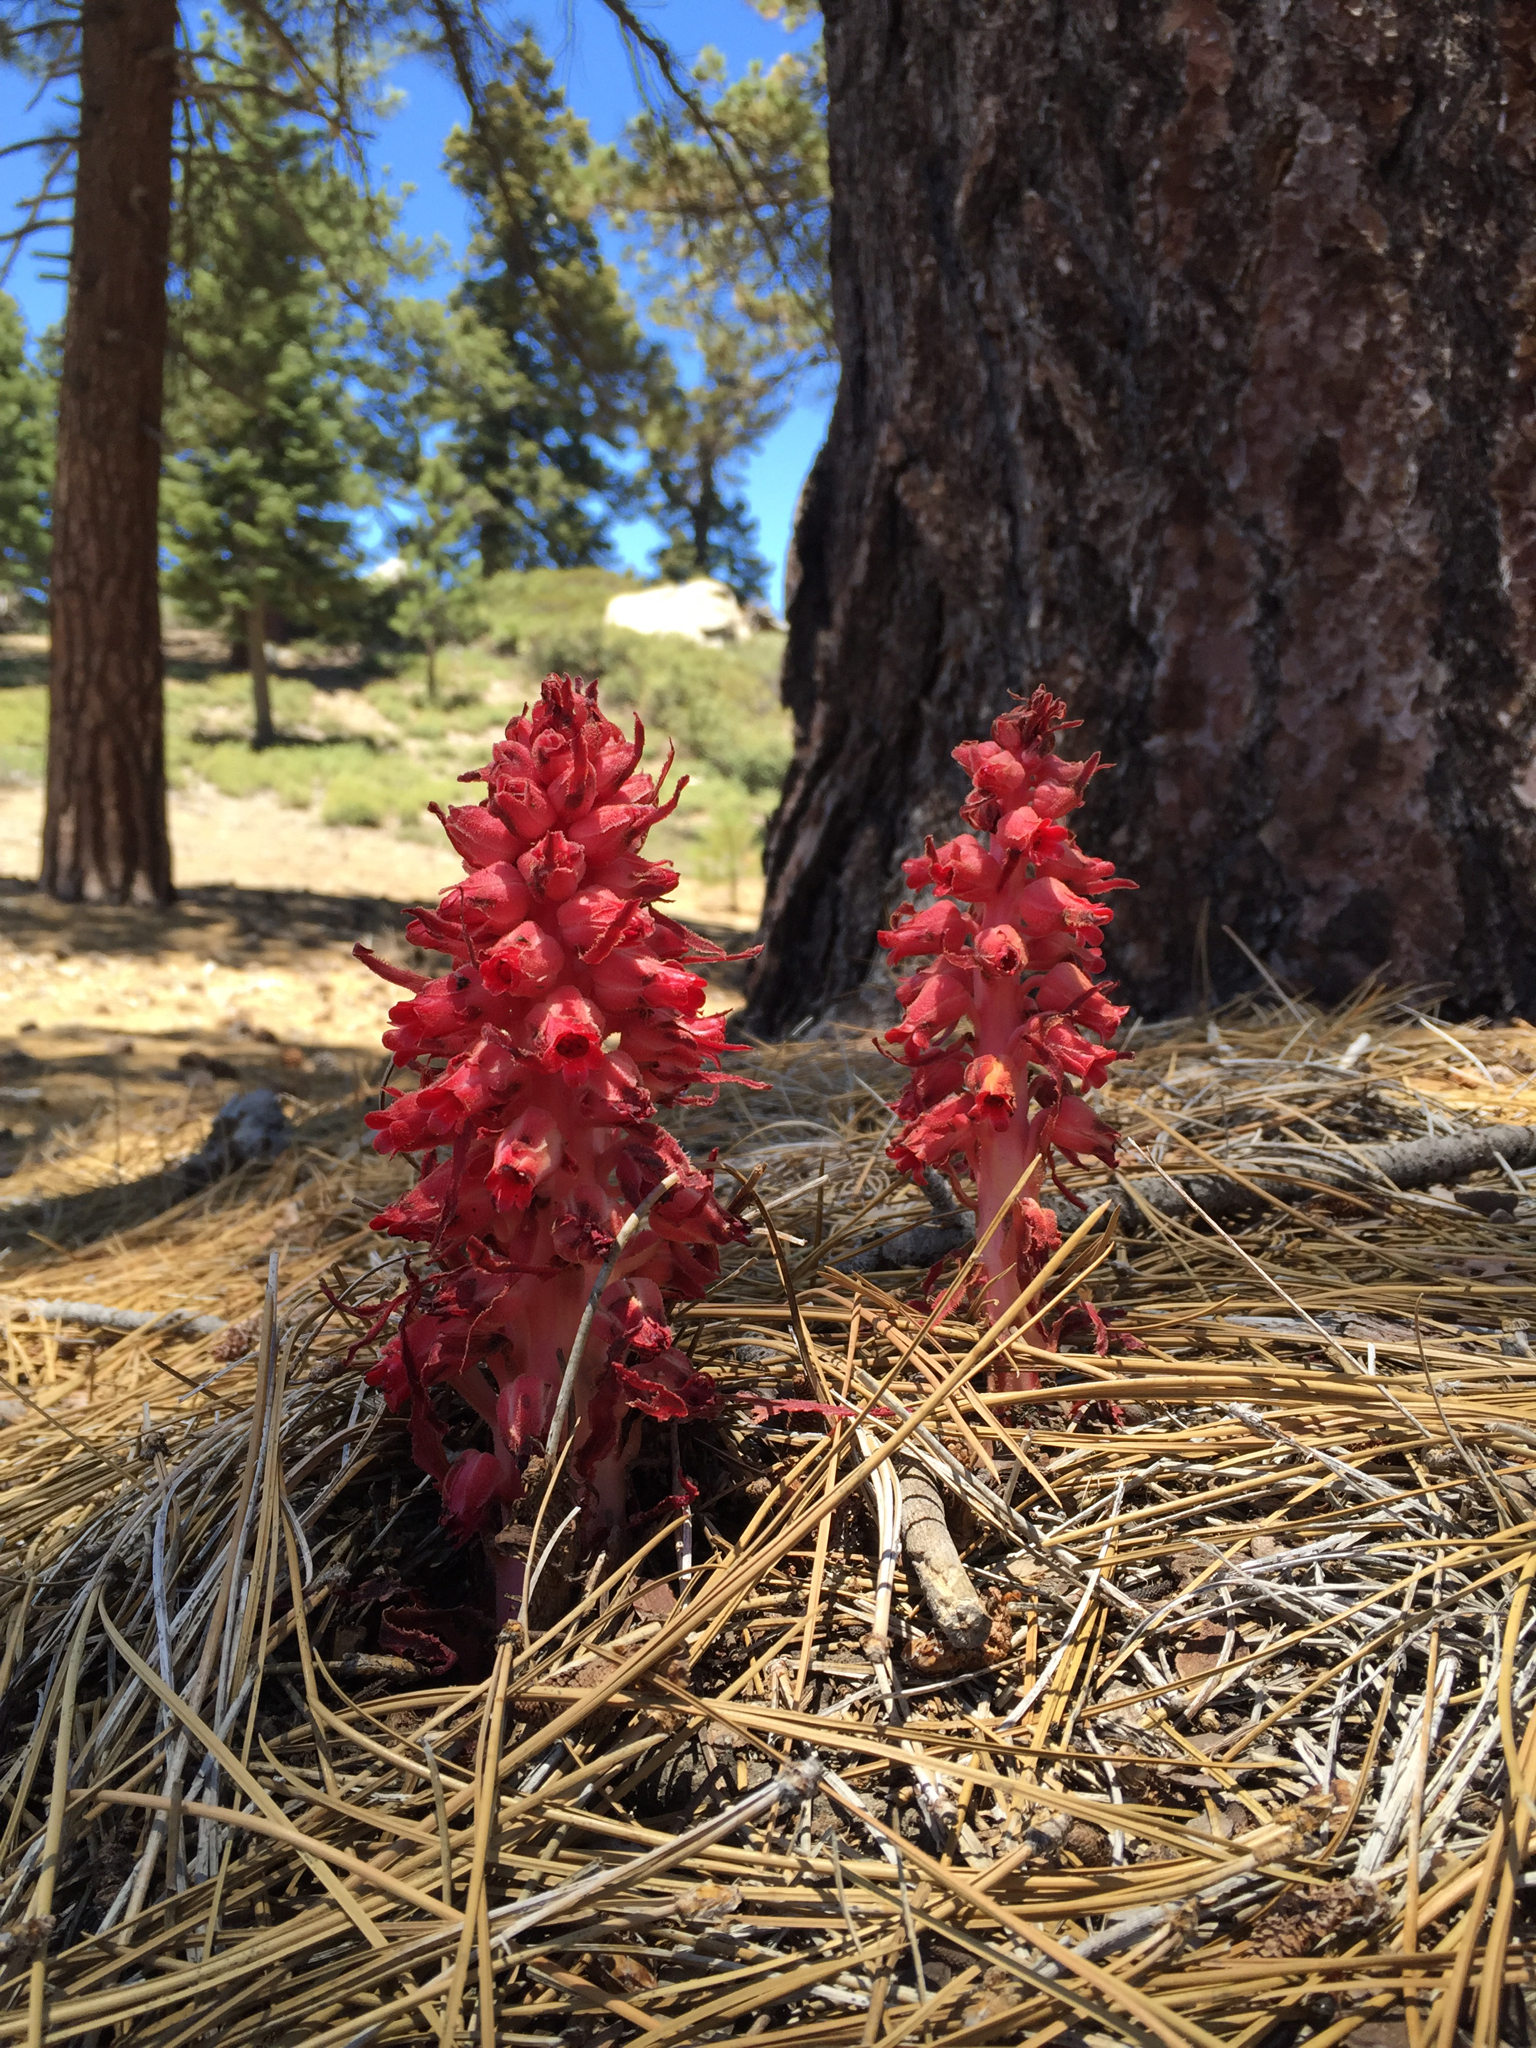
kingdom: Plantae
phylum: Tracheophyta
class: Magnoliopsida
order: Ericales
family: Ericaceae
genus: Sarcodes
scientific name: Sarcodes sanguinea
